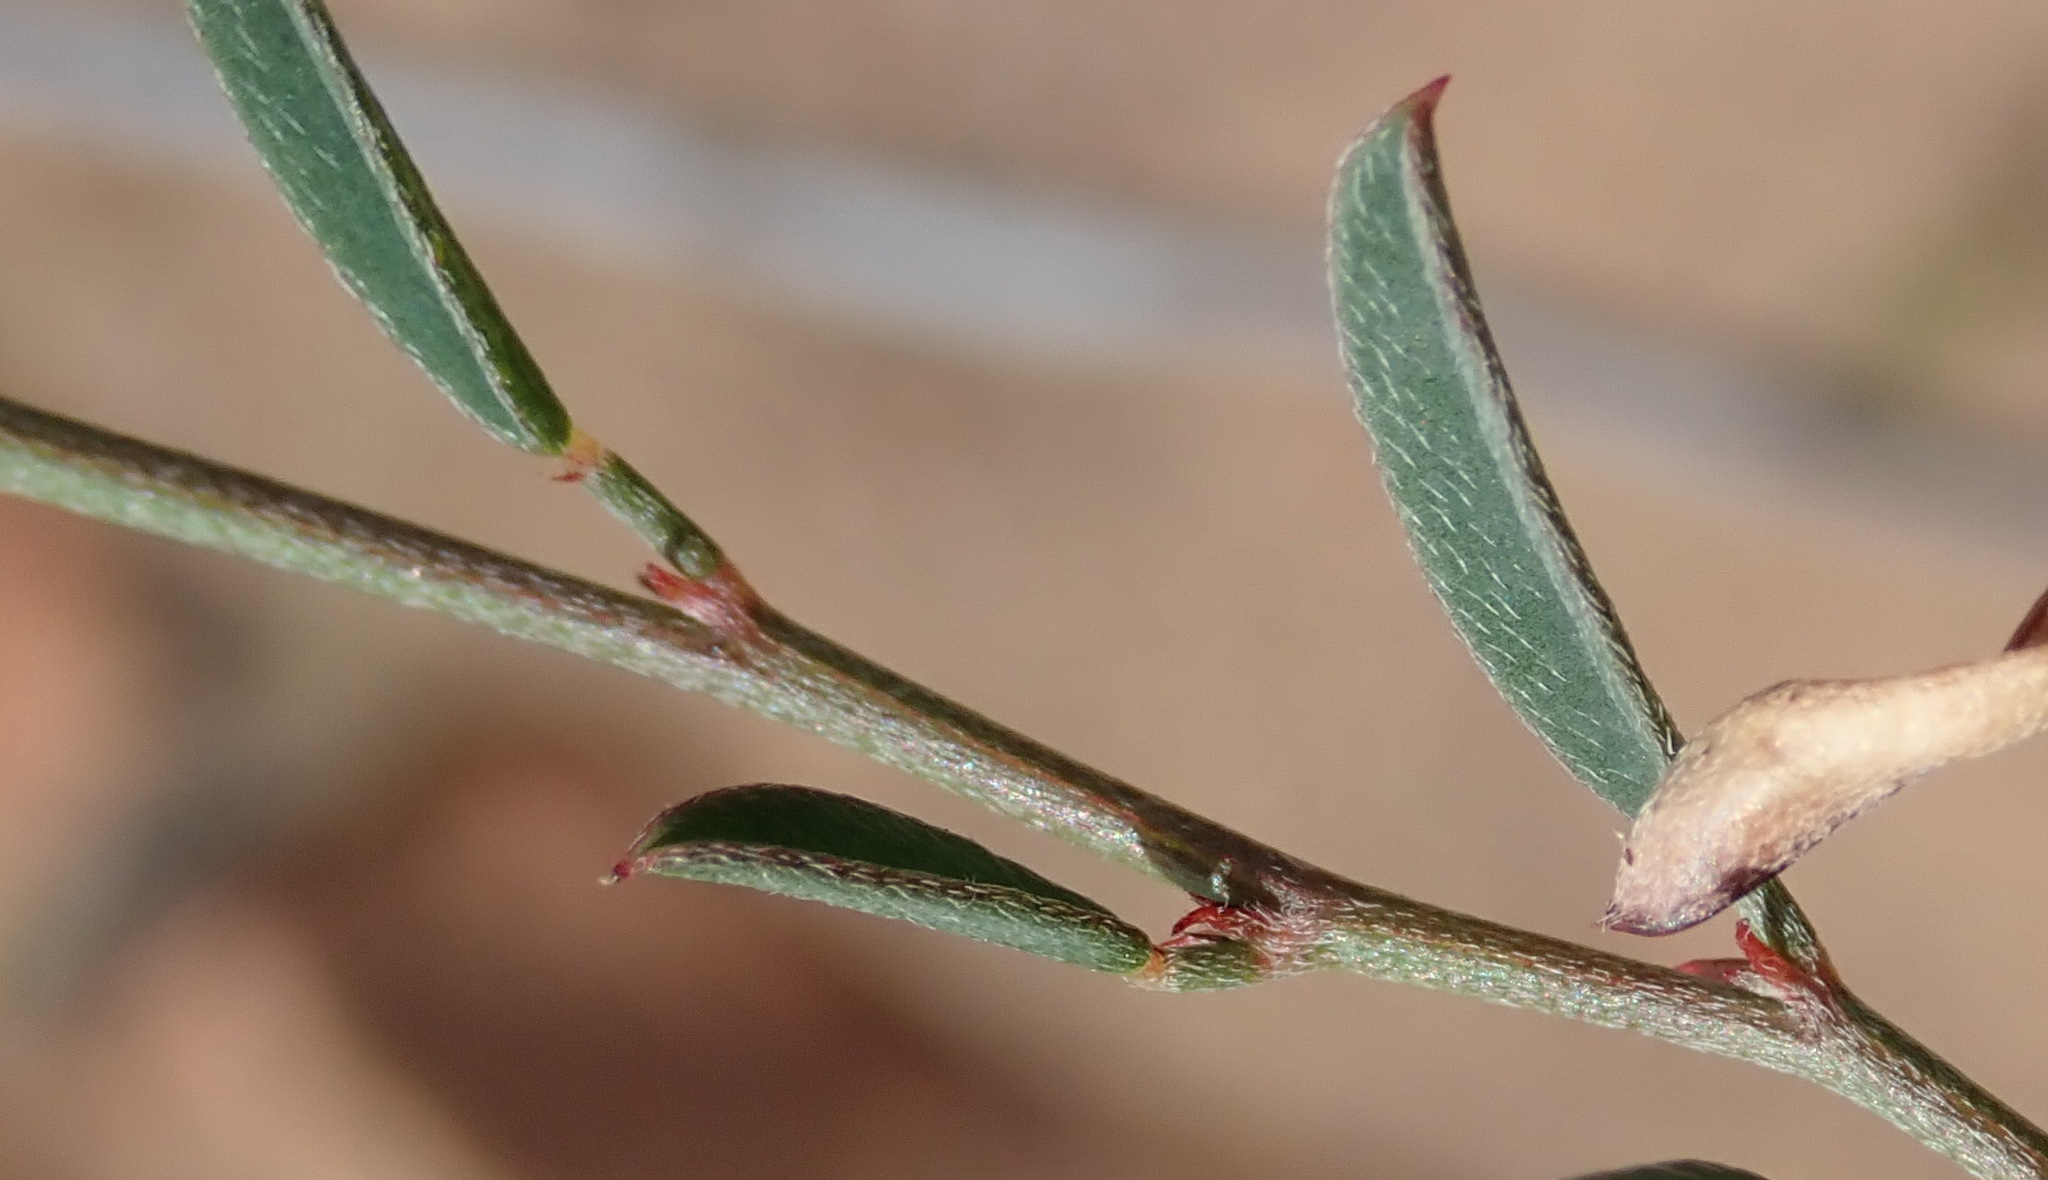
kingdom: Plantae
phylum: Tracheophyta
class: Magnoliopsida
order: Fabales
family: Fabaceae
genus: Indigofera
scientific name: Indigofera leptocarpa
